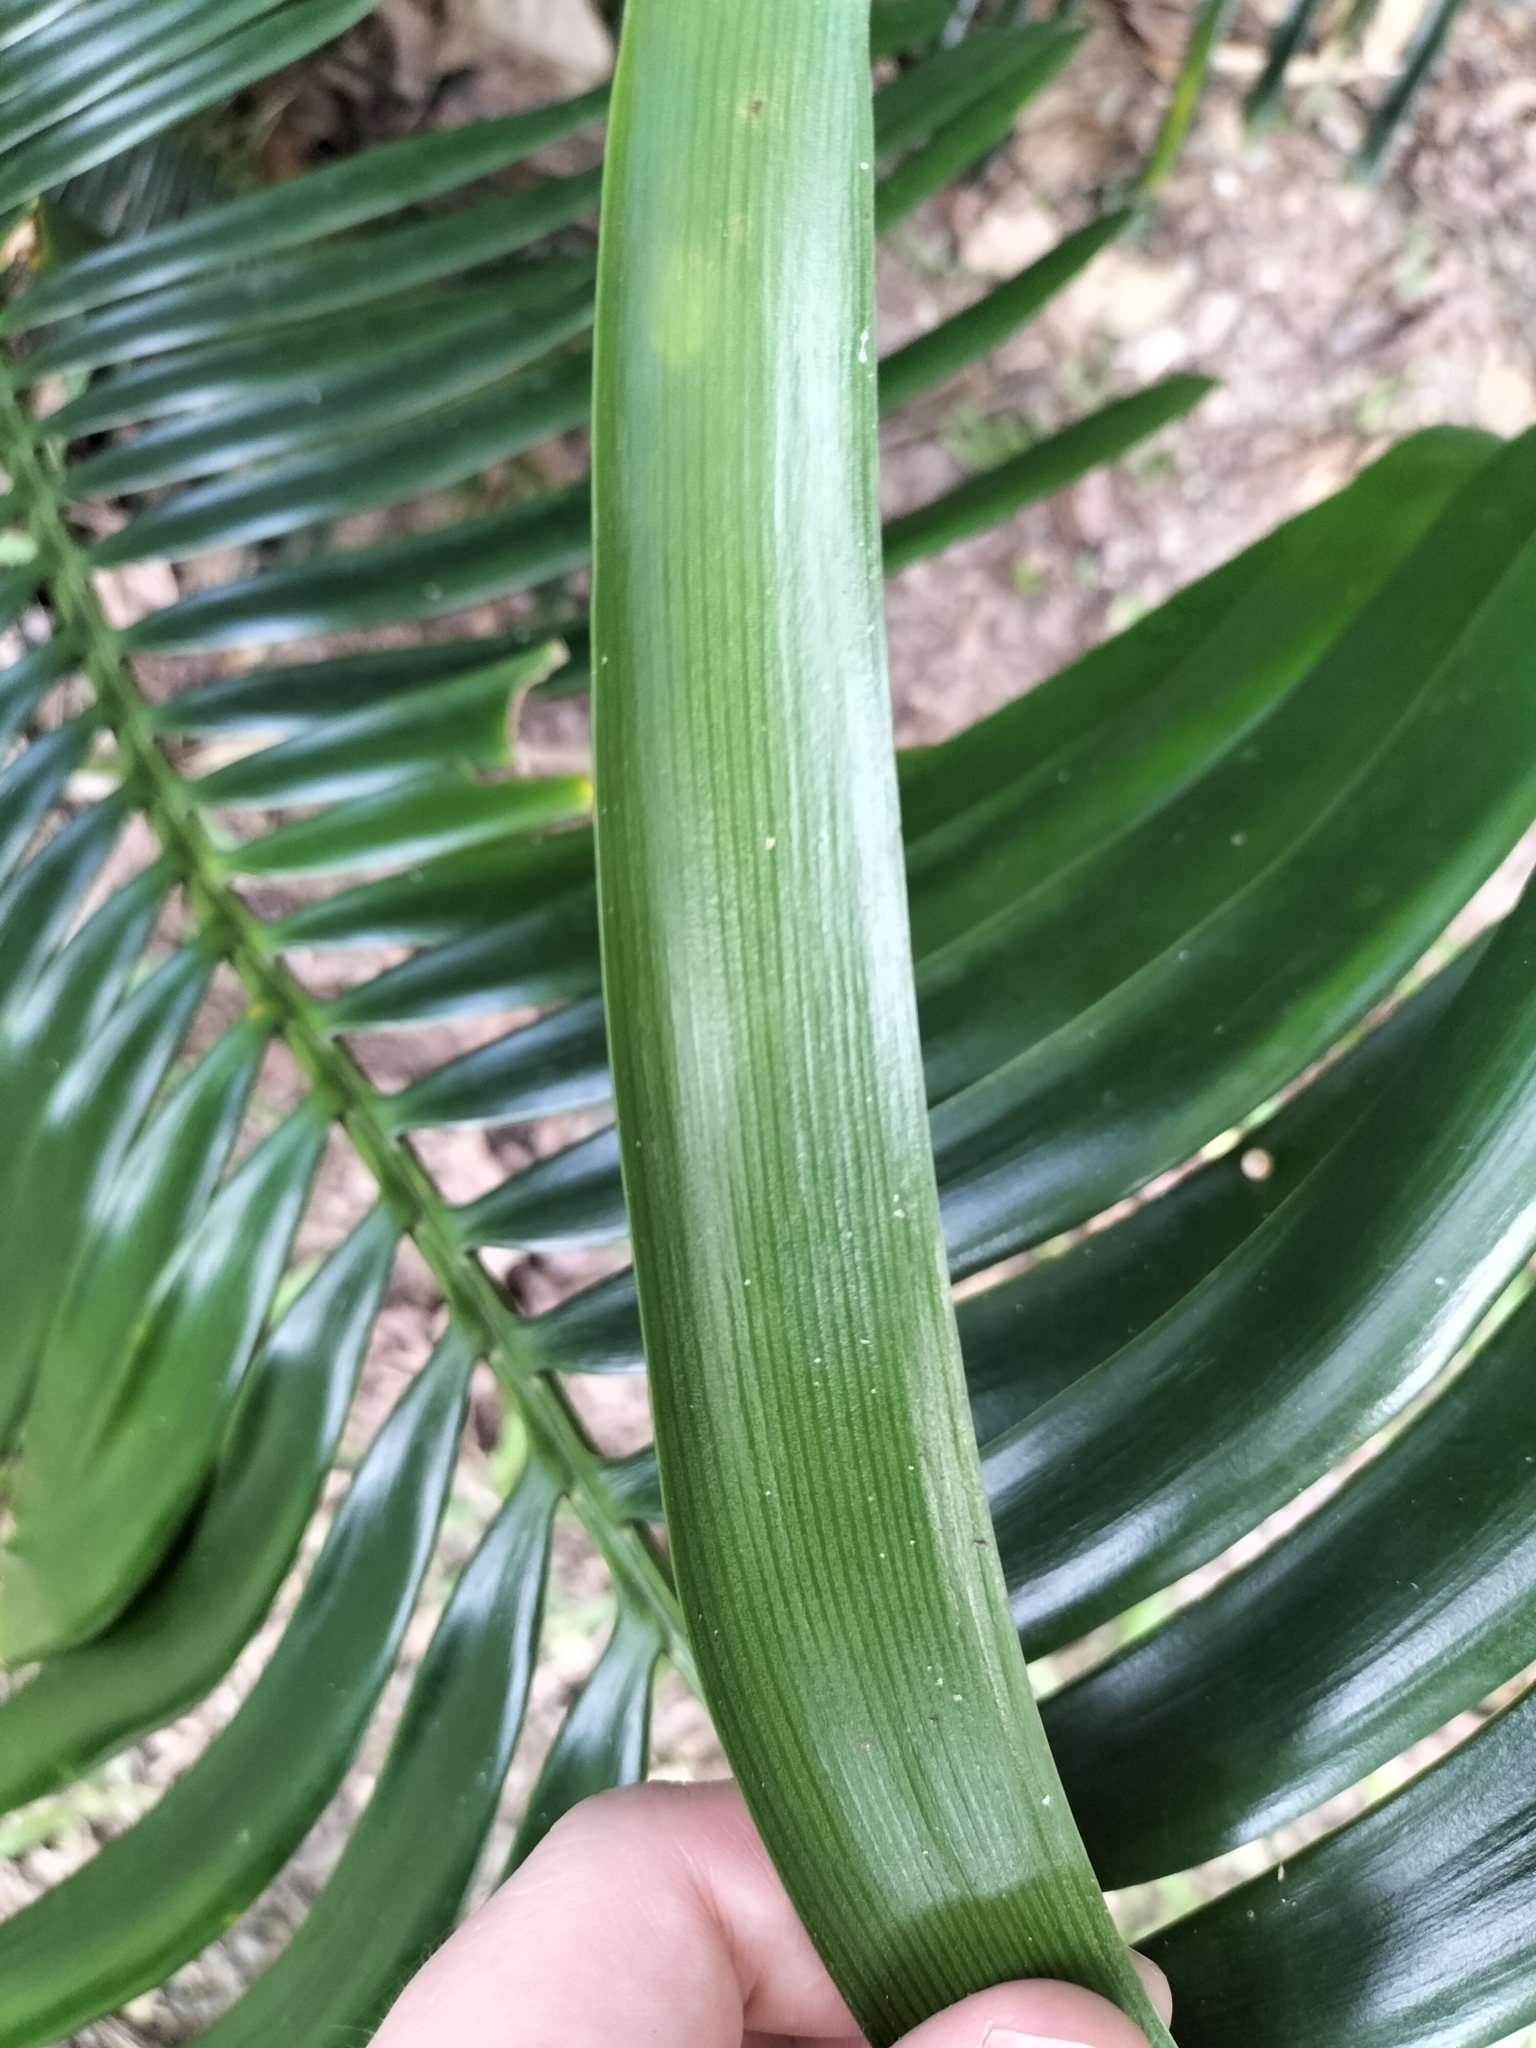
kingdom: Plantae
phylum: Tracheophyta
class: Cycadopsida
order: Cycadales
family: Zamiaceae
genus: Lepidozamia
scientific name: Lepidozamia hopei
